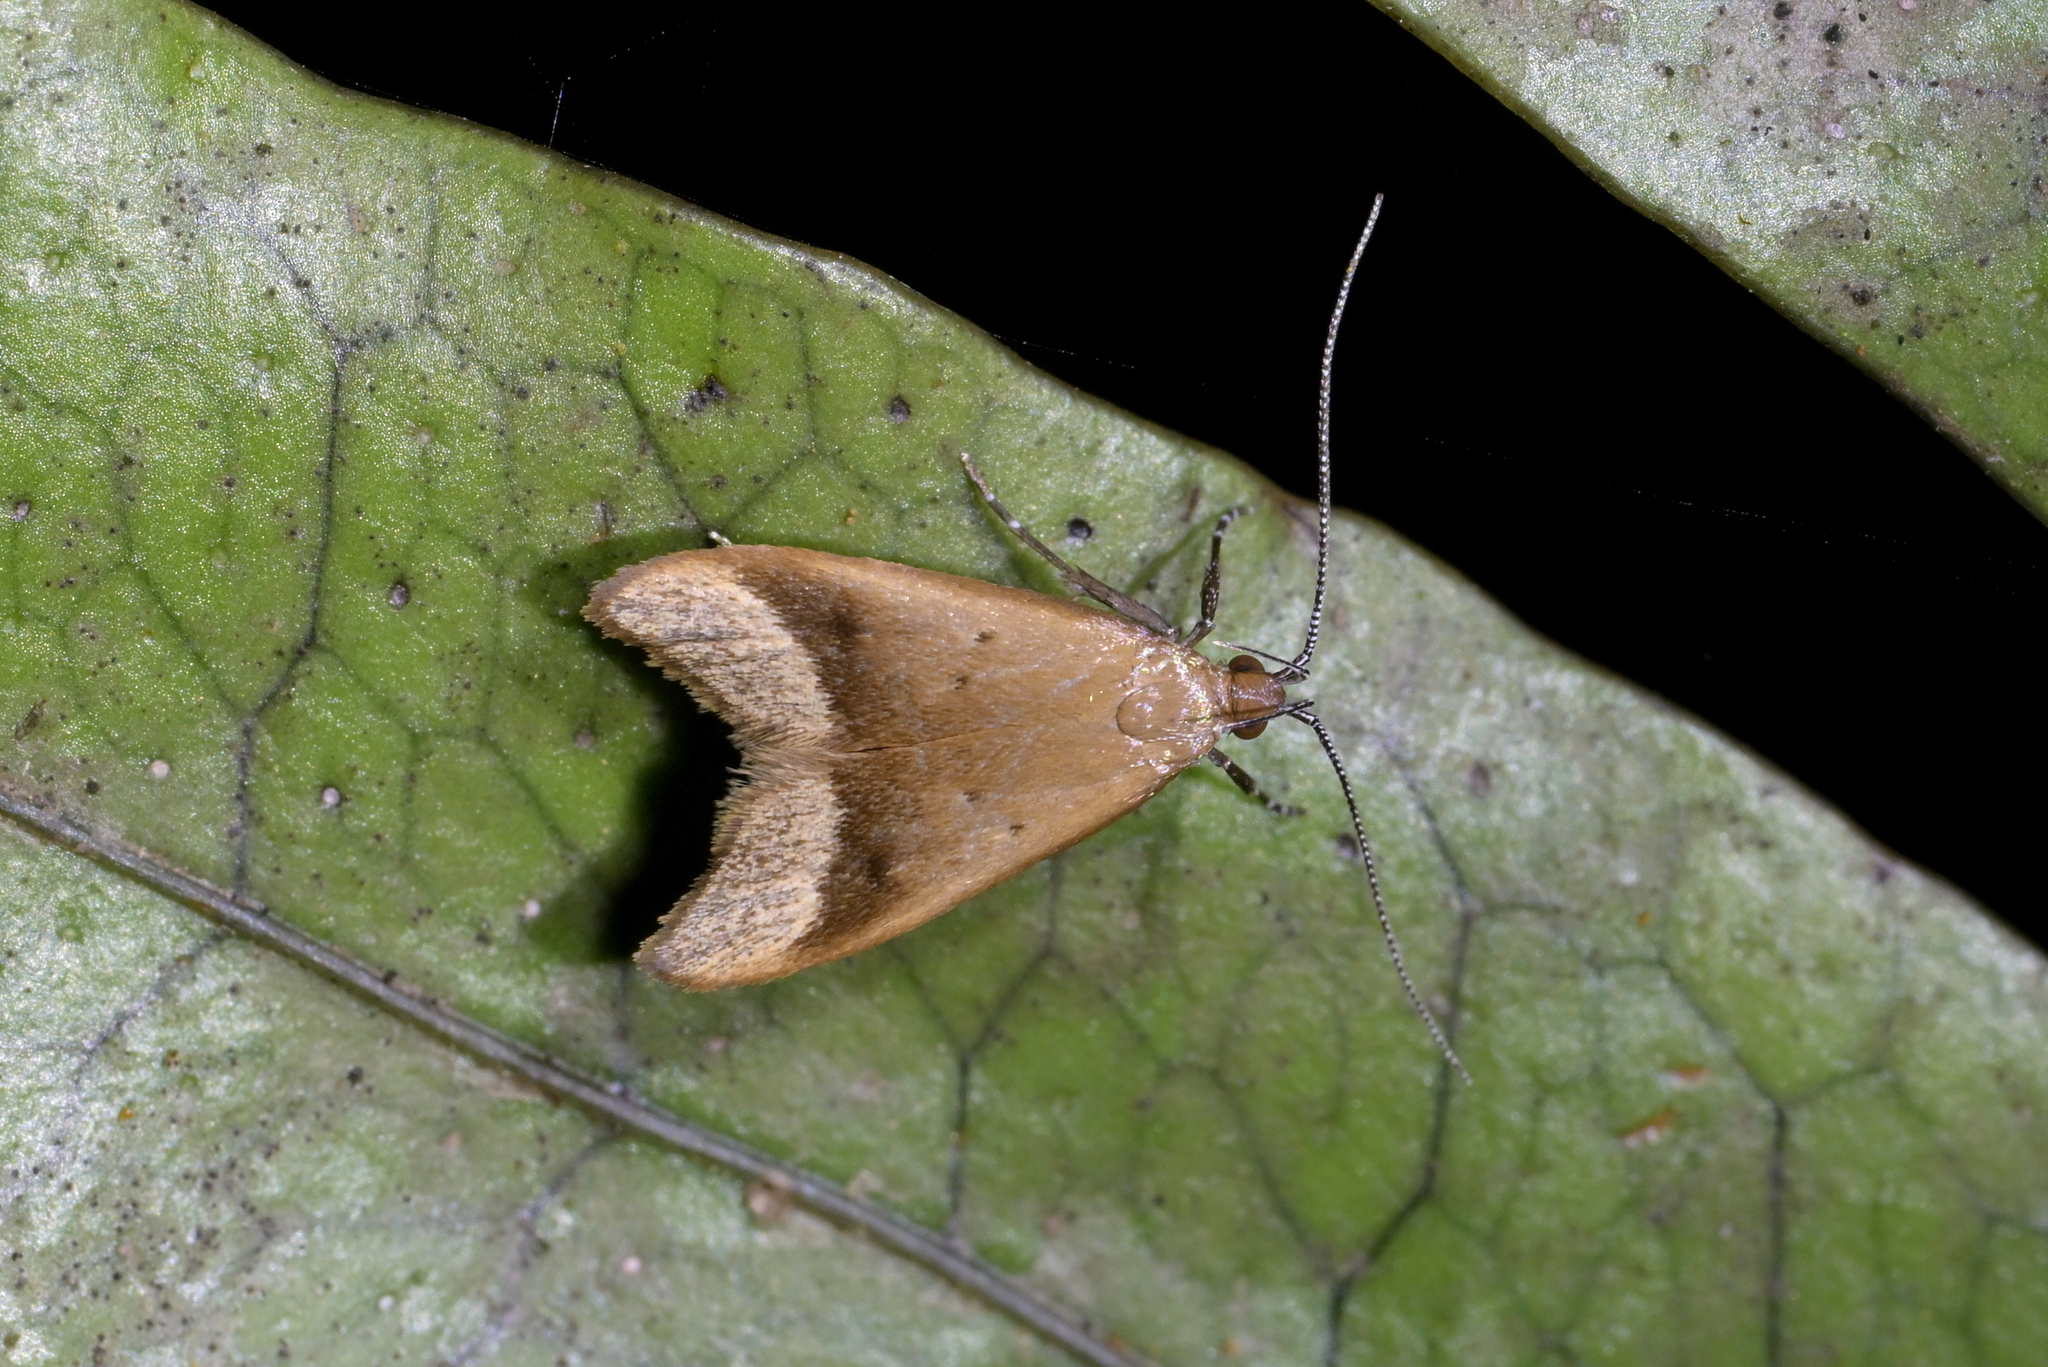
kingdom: Animalia
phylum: Arthropoda
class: Insecta
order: Lepidoptera
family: Oecophoridae
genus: Gymnobathra
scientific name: Gymnobathra hyetodes
